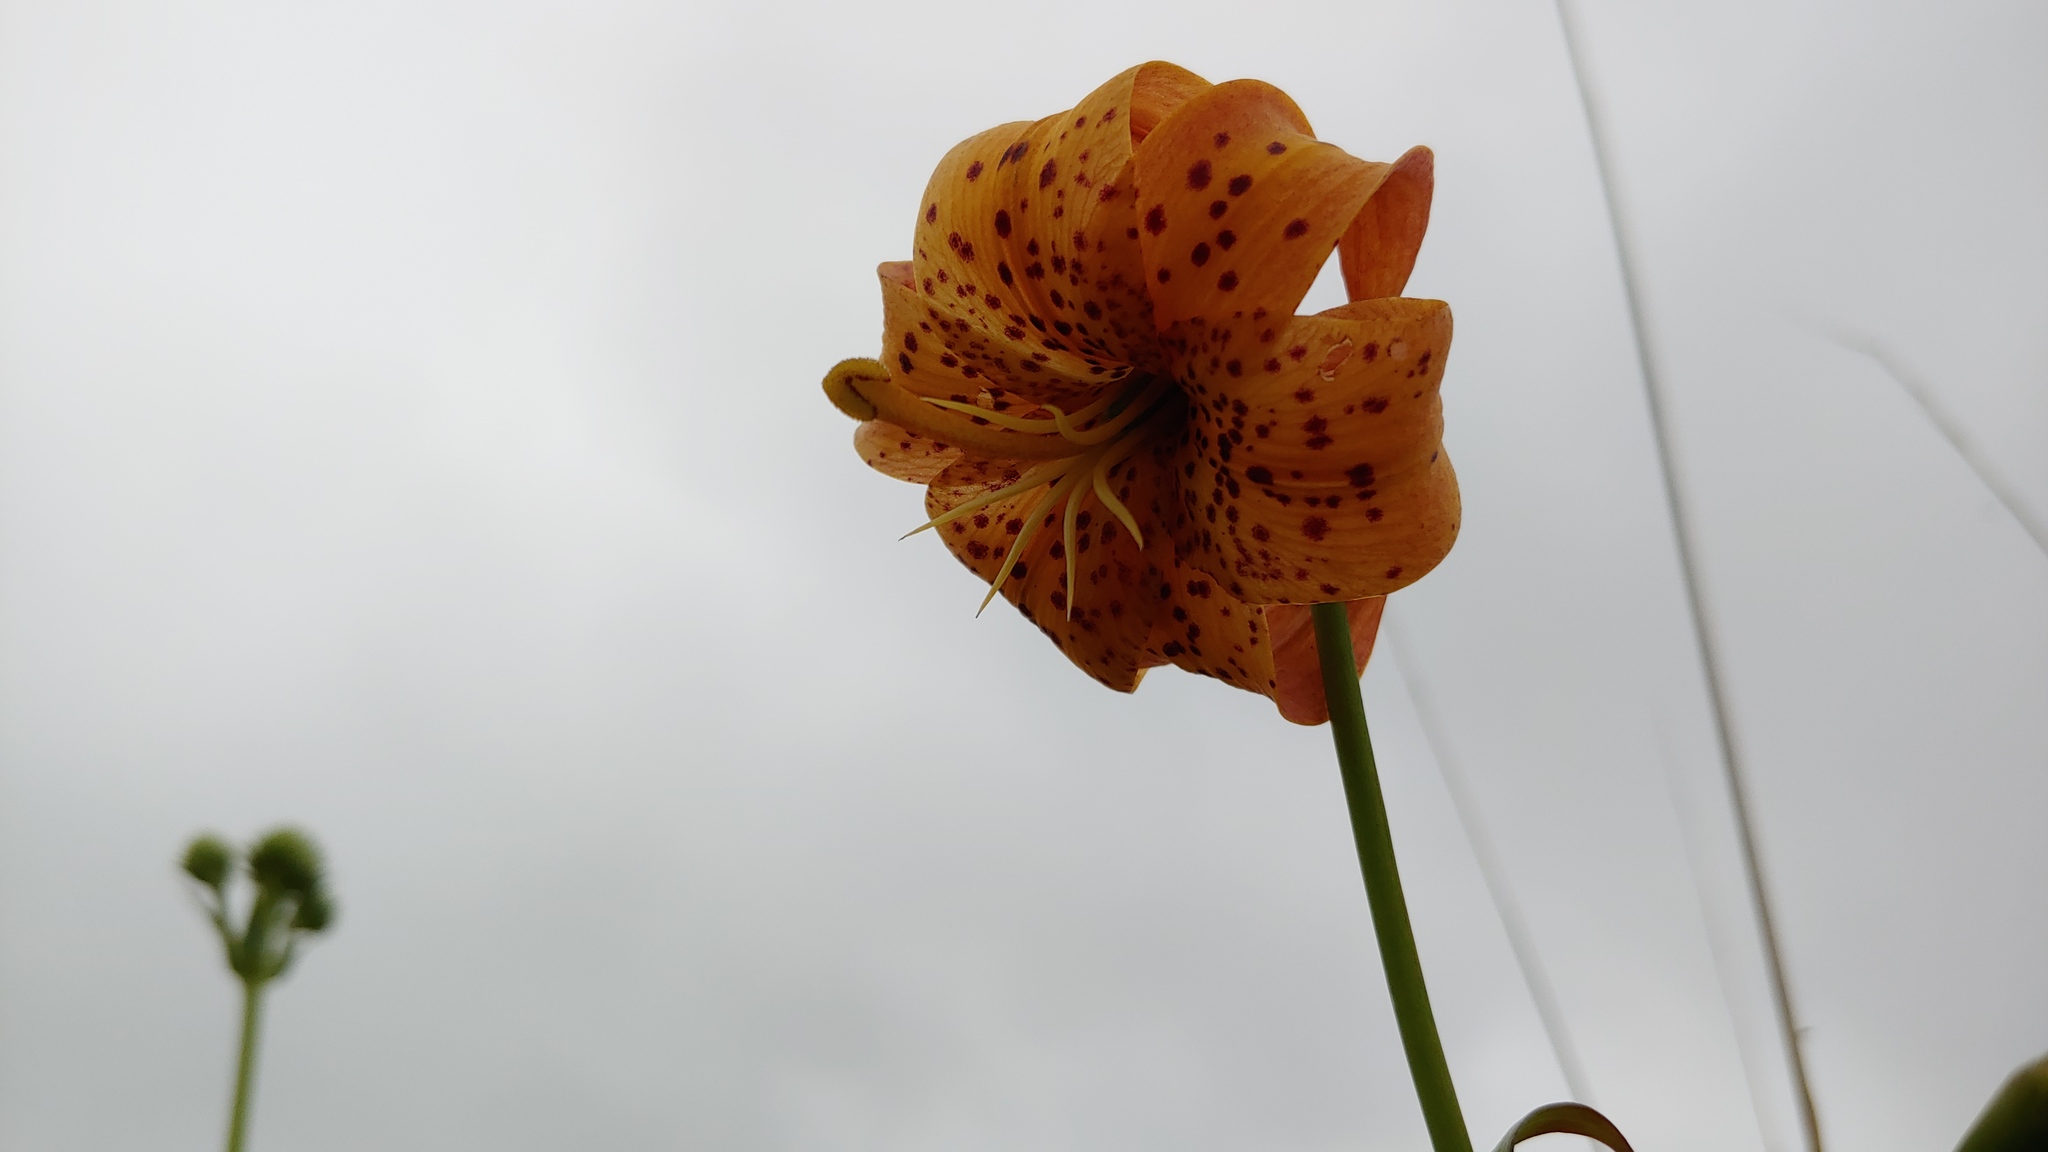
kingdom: Plantae
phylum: Tracheophyta
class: Liliopsida
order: Liliales
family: Liliaceae
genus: Lilium
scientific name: Lilium michiganense
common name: Michigan lily
